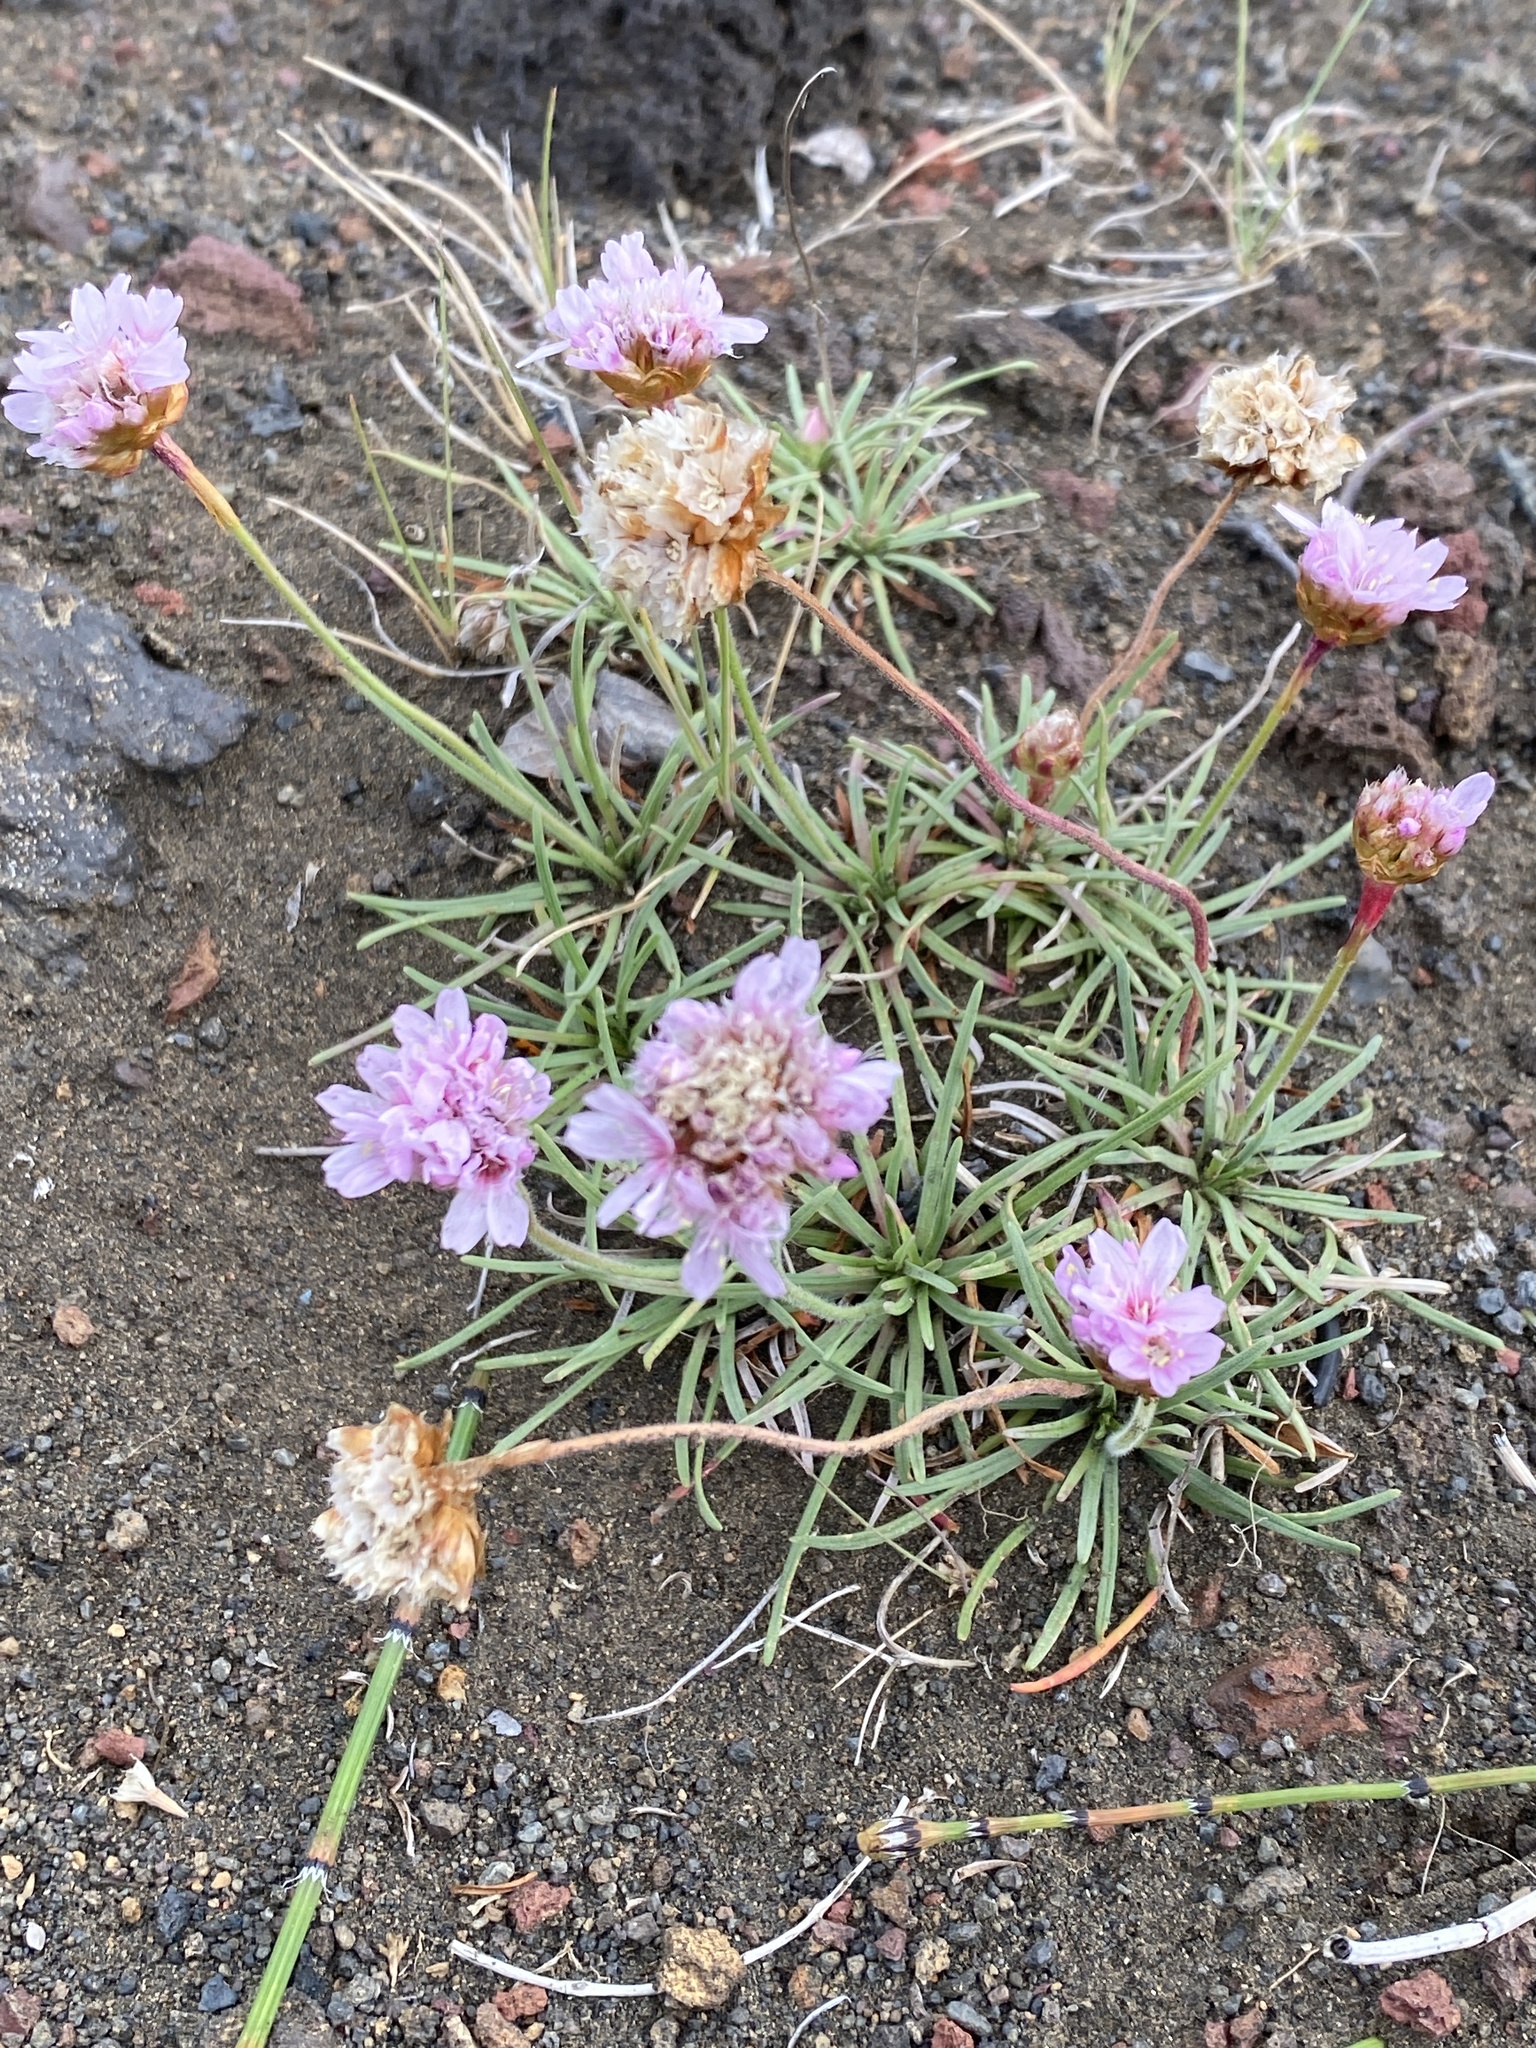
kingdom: Plantae
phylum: Tracheophyta
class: Magnoliopsida
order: Caryophyllales
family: Plumbaginaceae
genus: Armeria
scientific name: Armeria maritima
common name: Thrift
